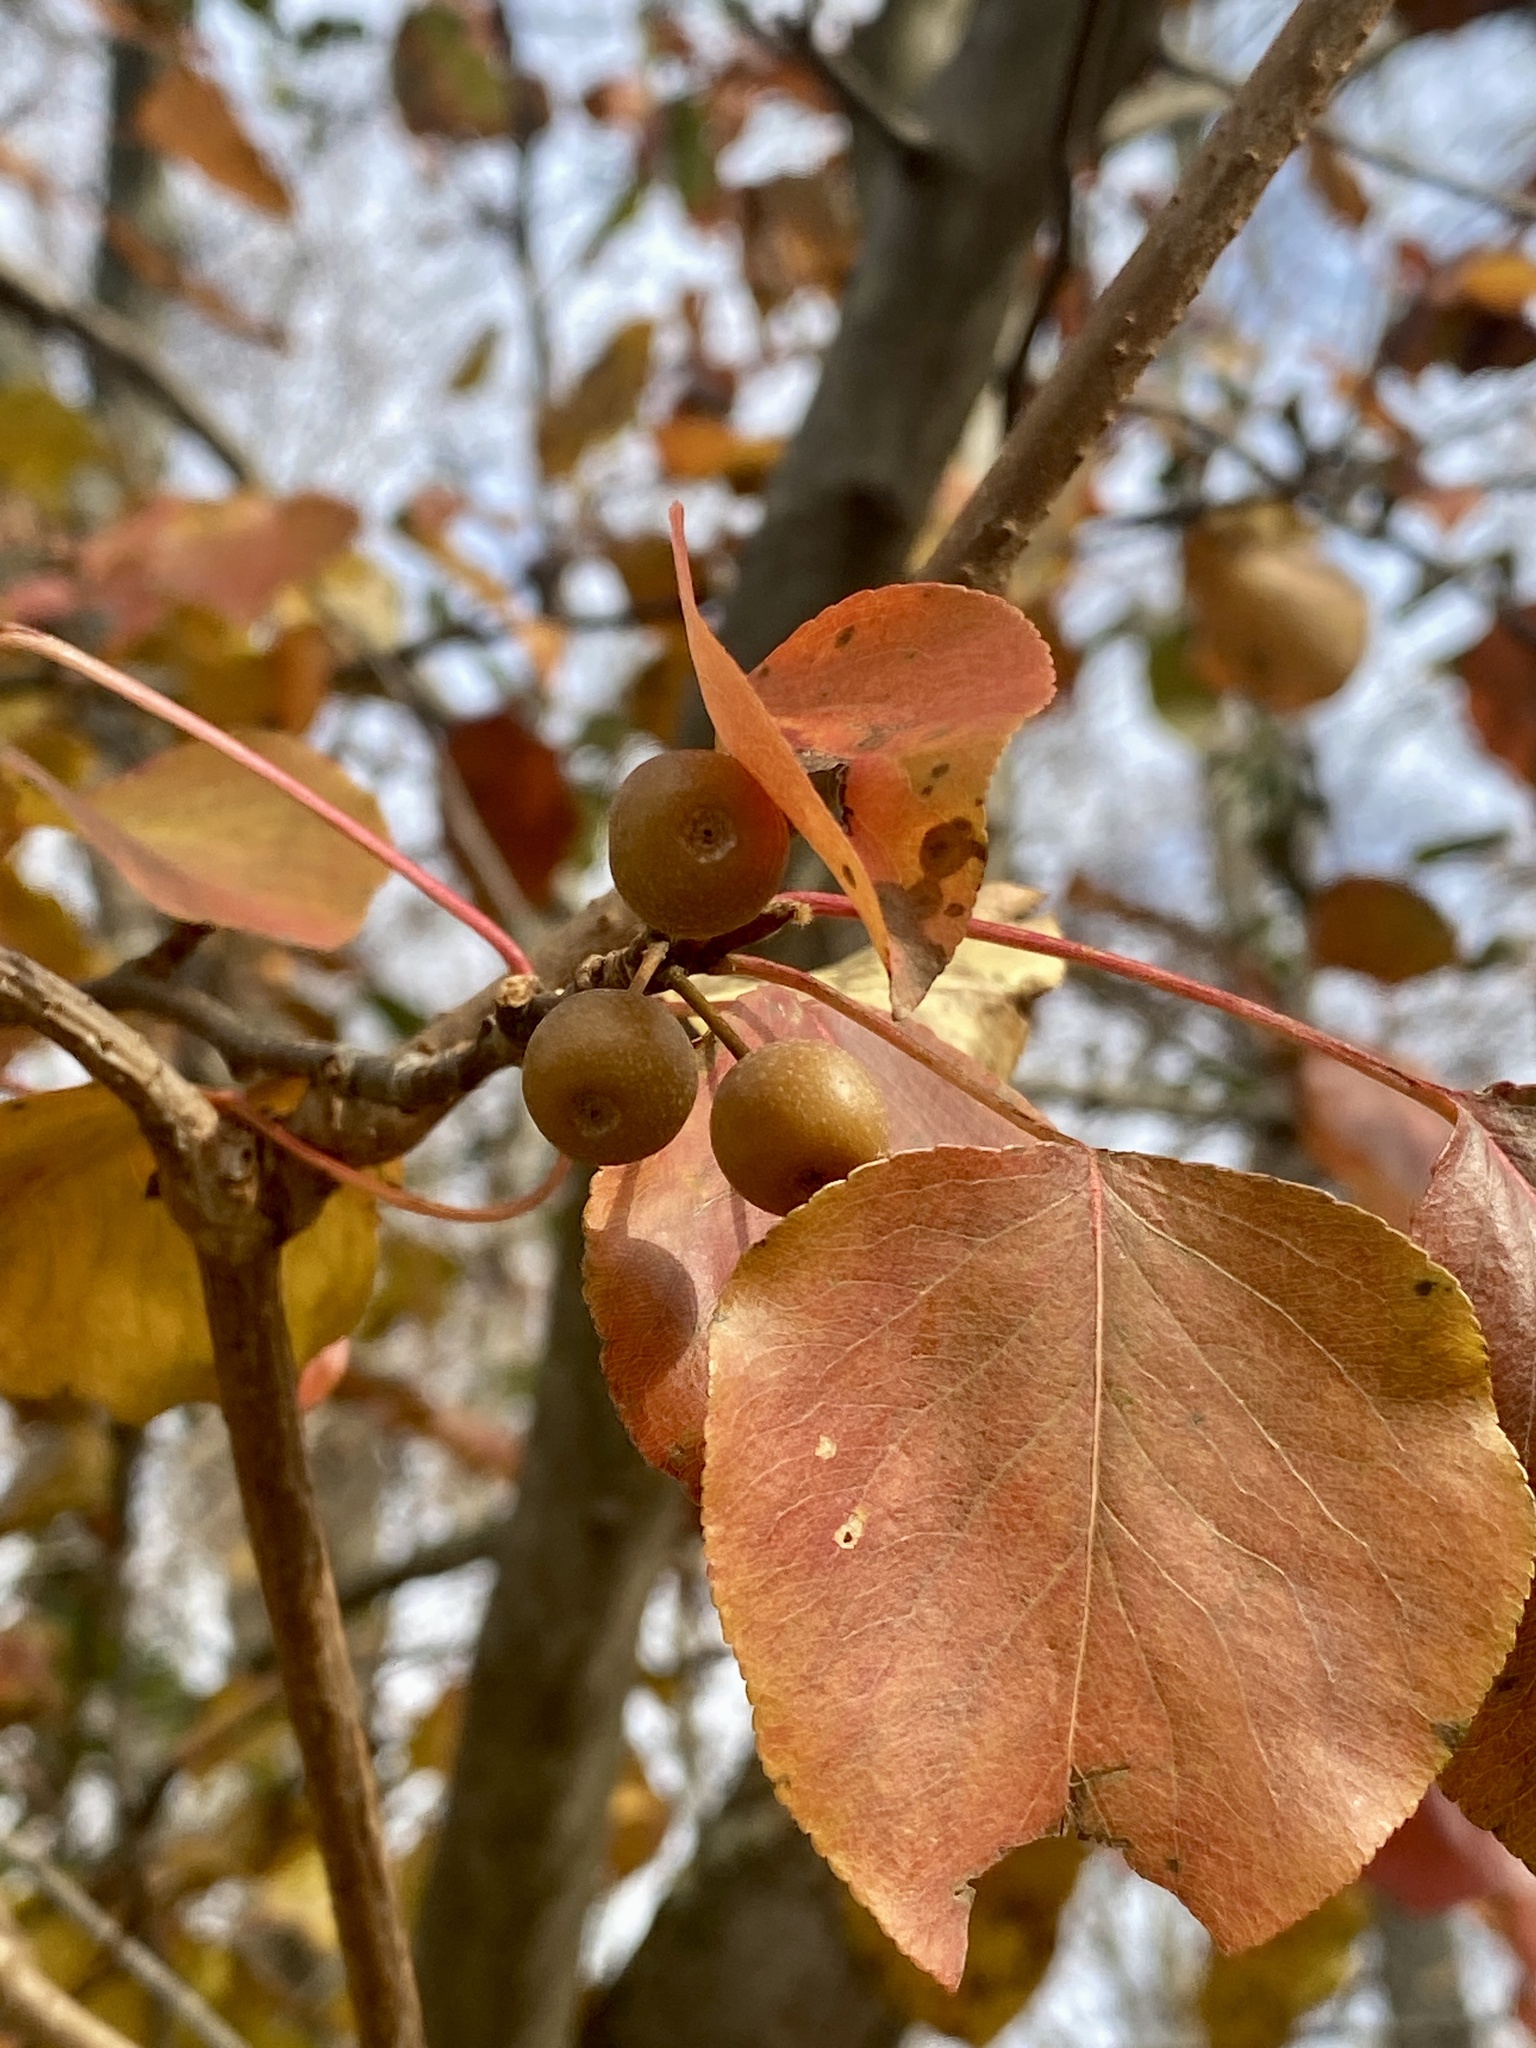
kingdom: Plantae
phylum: Tracheophyta
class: Magnoliopsida
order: Rosales
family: Rosaceae
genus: Pyrus
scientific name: Pyrus calleryana
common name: Callery pear
